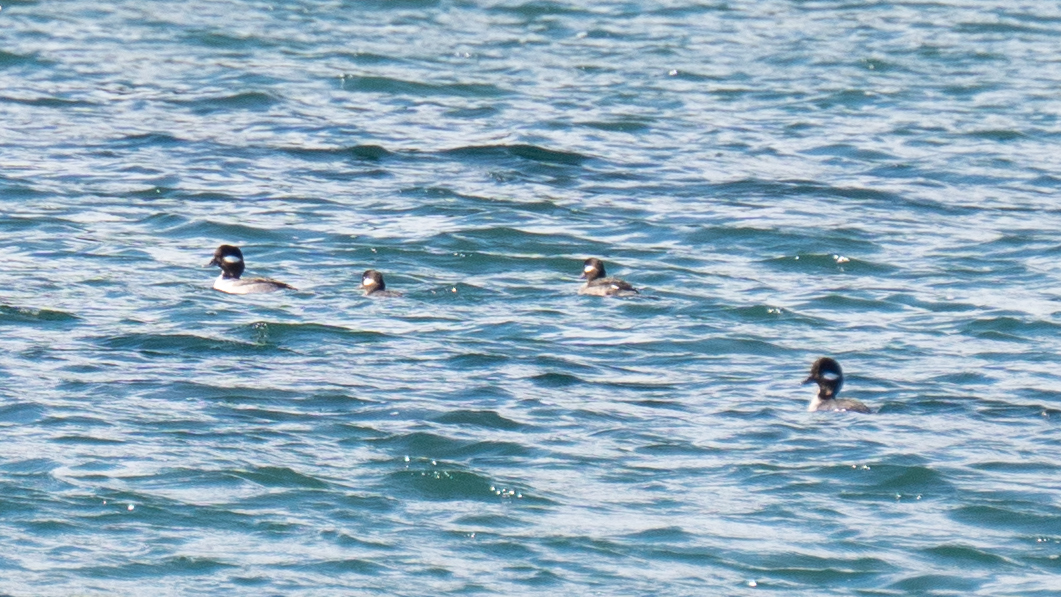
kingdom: Animalia
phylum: Chordata
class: Aves
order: Anseriformes
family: Anatidae
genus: Bucephala
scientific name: Bucephala albeola
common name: Bufflehead
